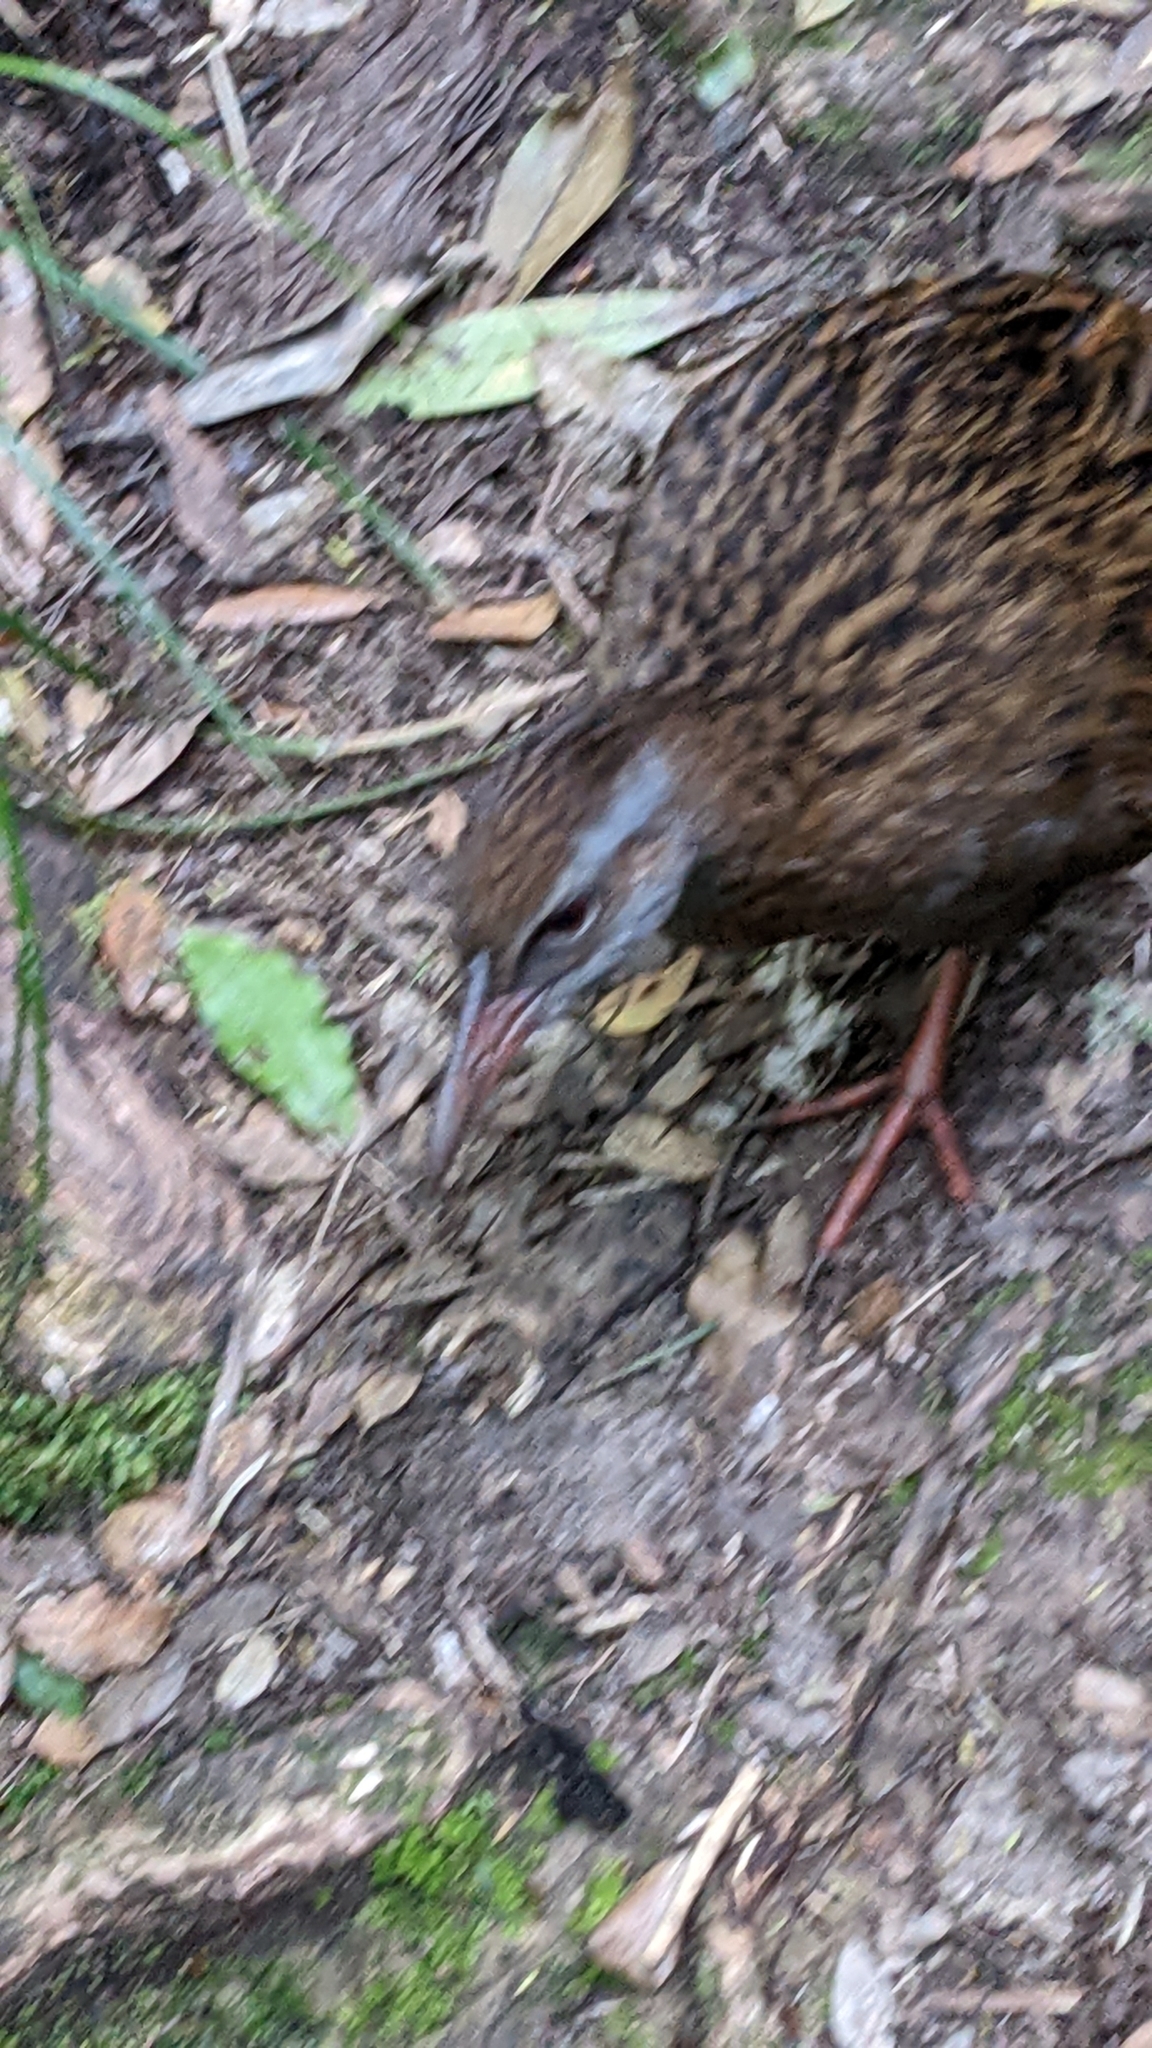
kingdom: Animalia
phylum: Chordata
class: Aves
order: Gruiformes
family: Rallidae
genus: Gallirallus
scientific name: Gallirallus
